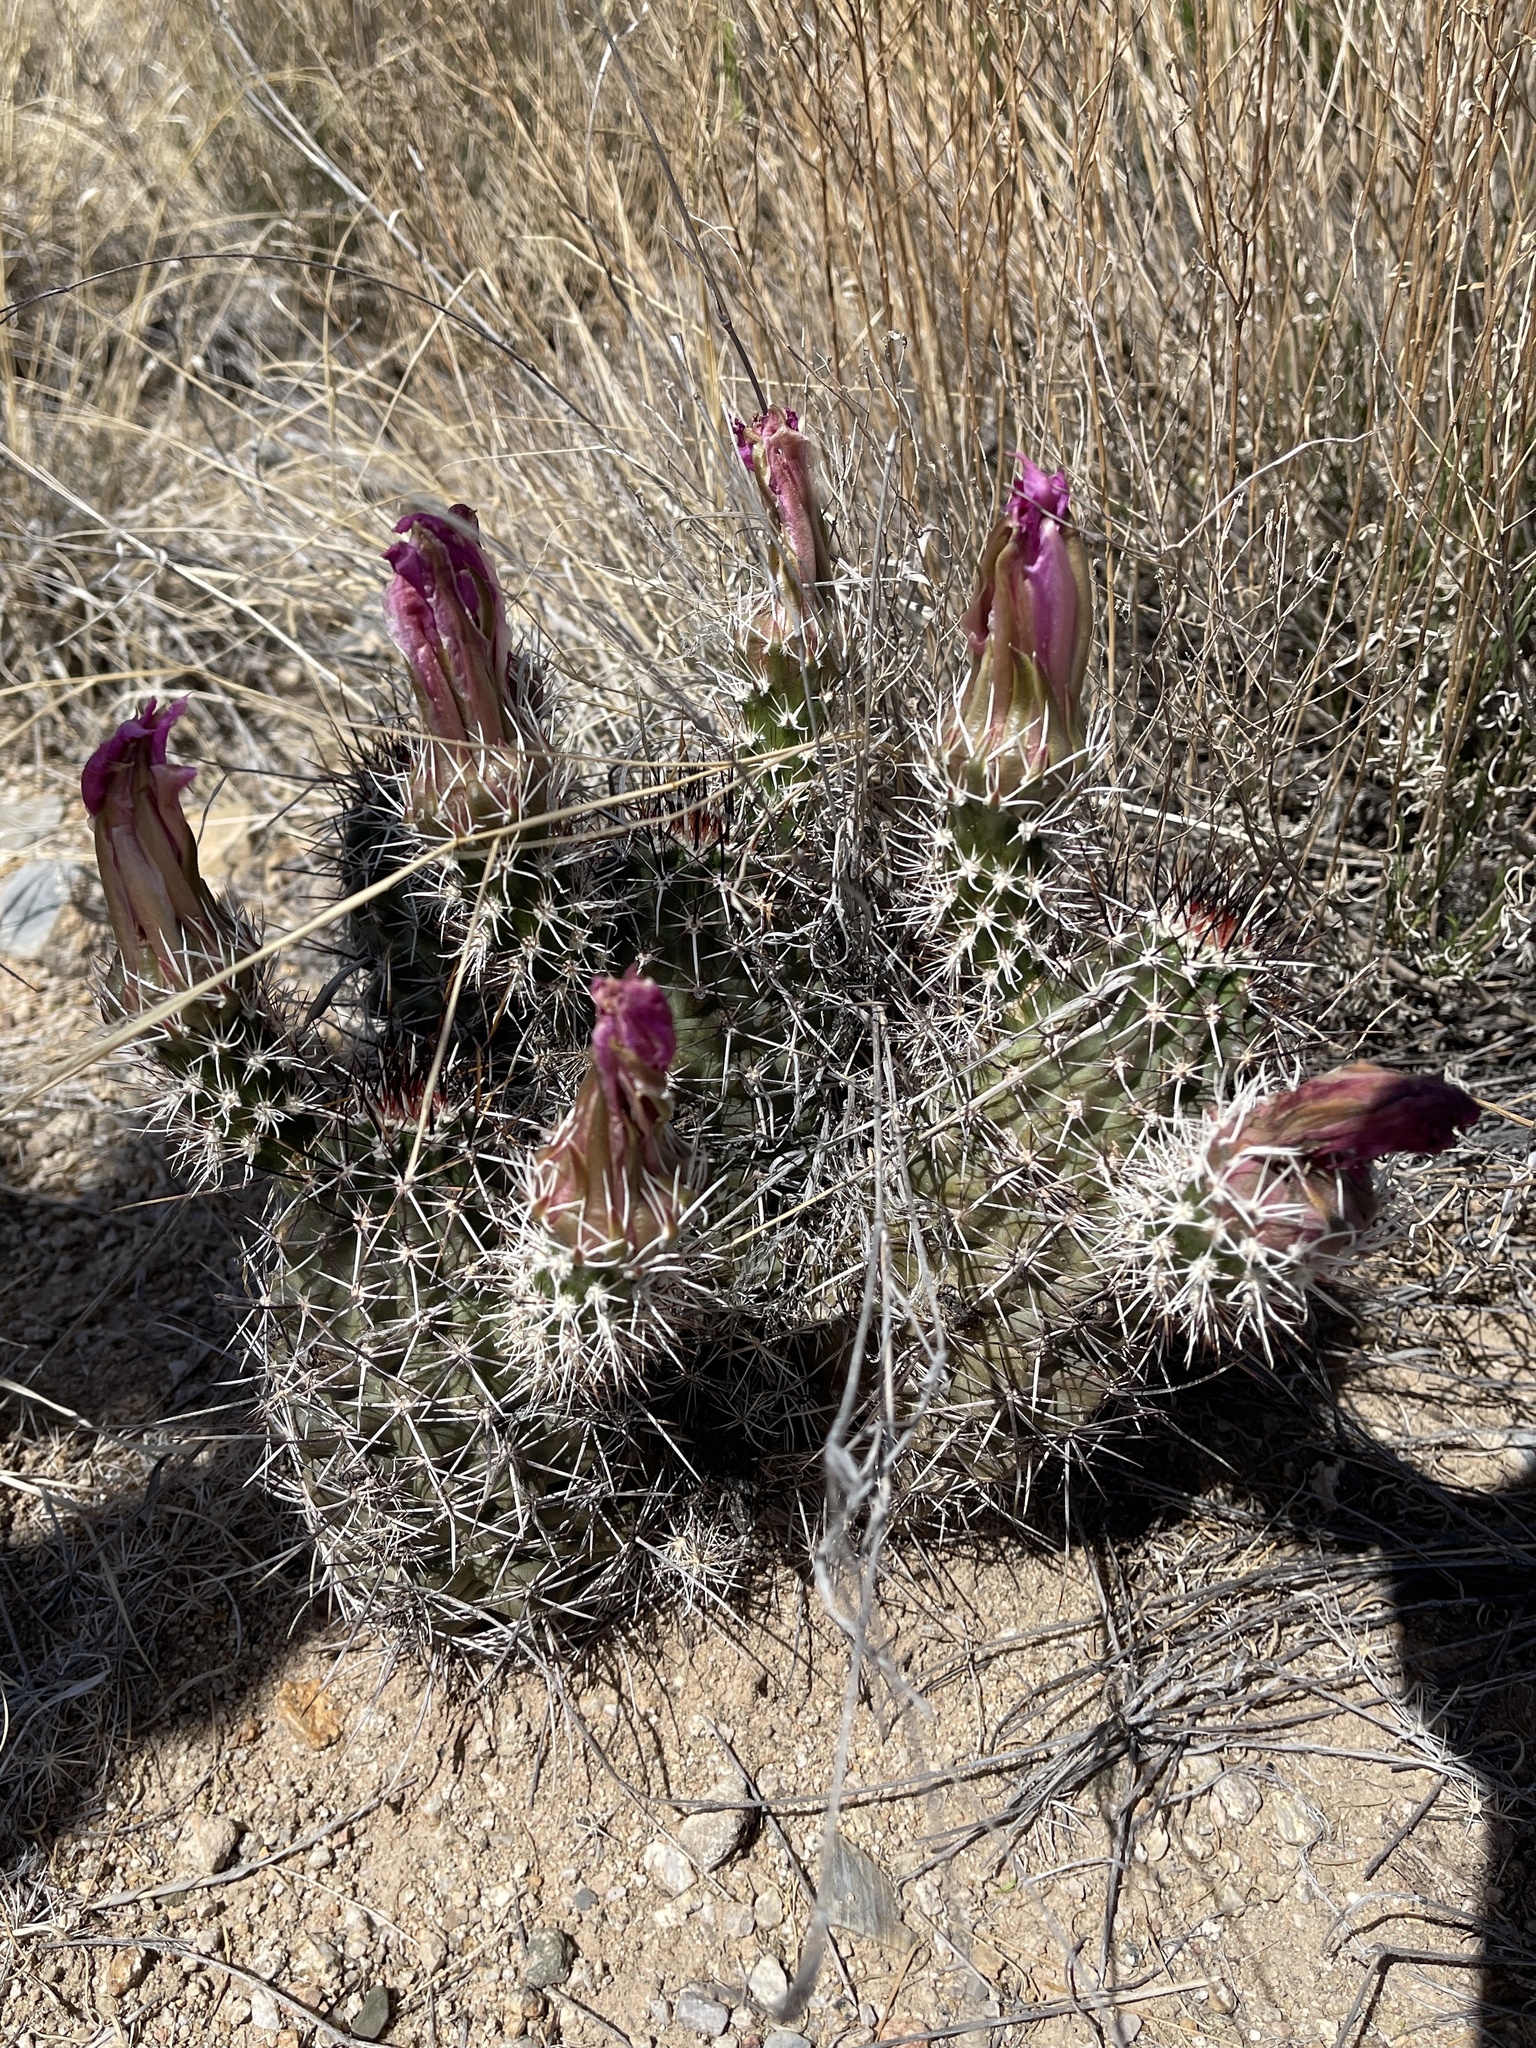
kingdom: Plantae
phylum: Tracheophyta
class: Magnoliopsida
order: Caryophyllales
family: Cactaceae
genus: Echinocereus
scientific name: Echinocereus fendleri
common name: Fendler's hedgehog cactus
